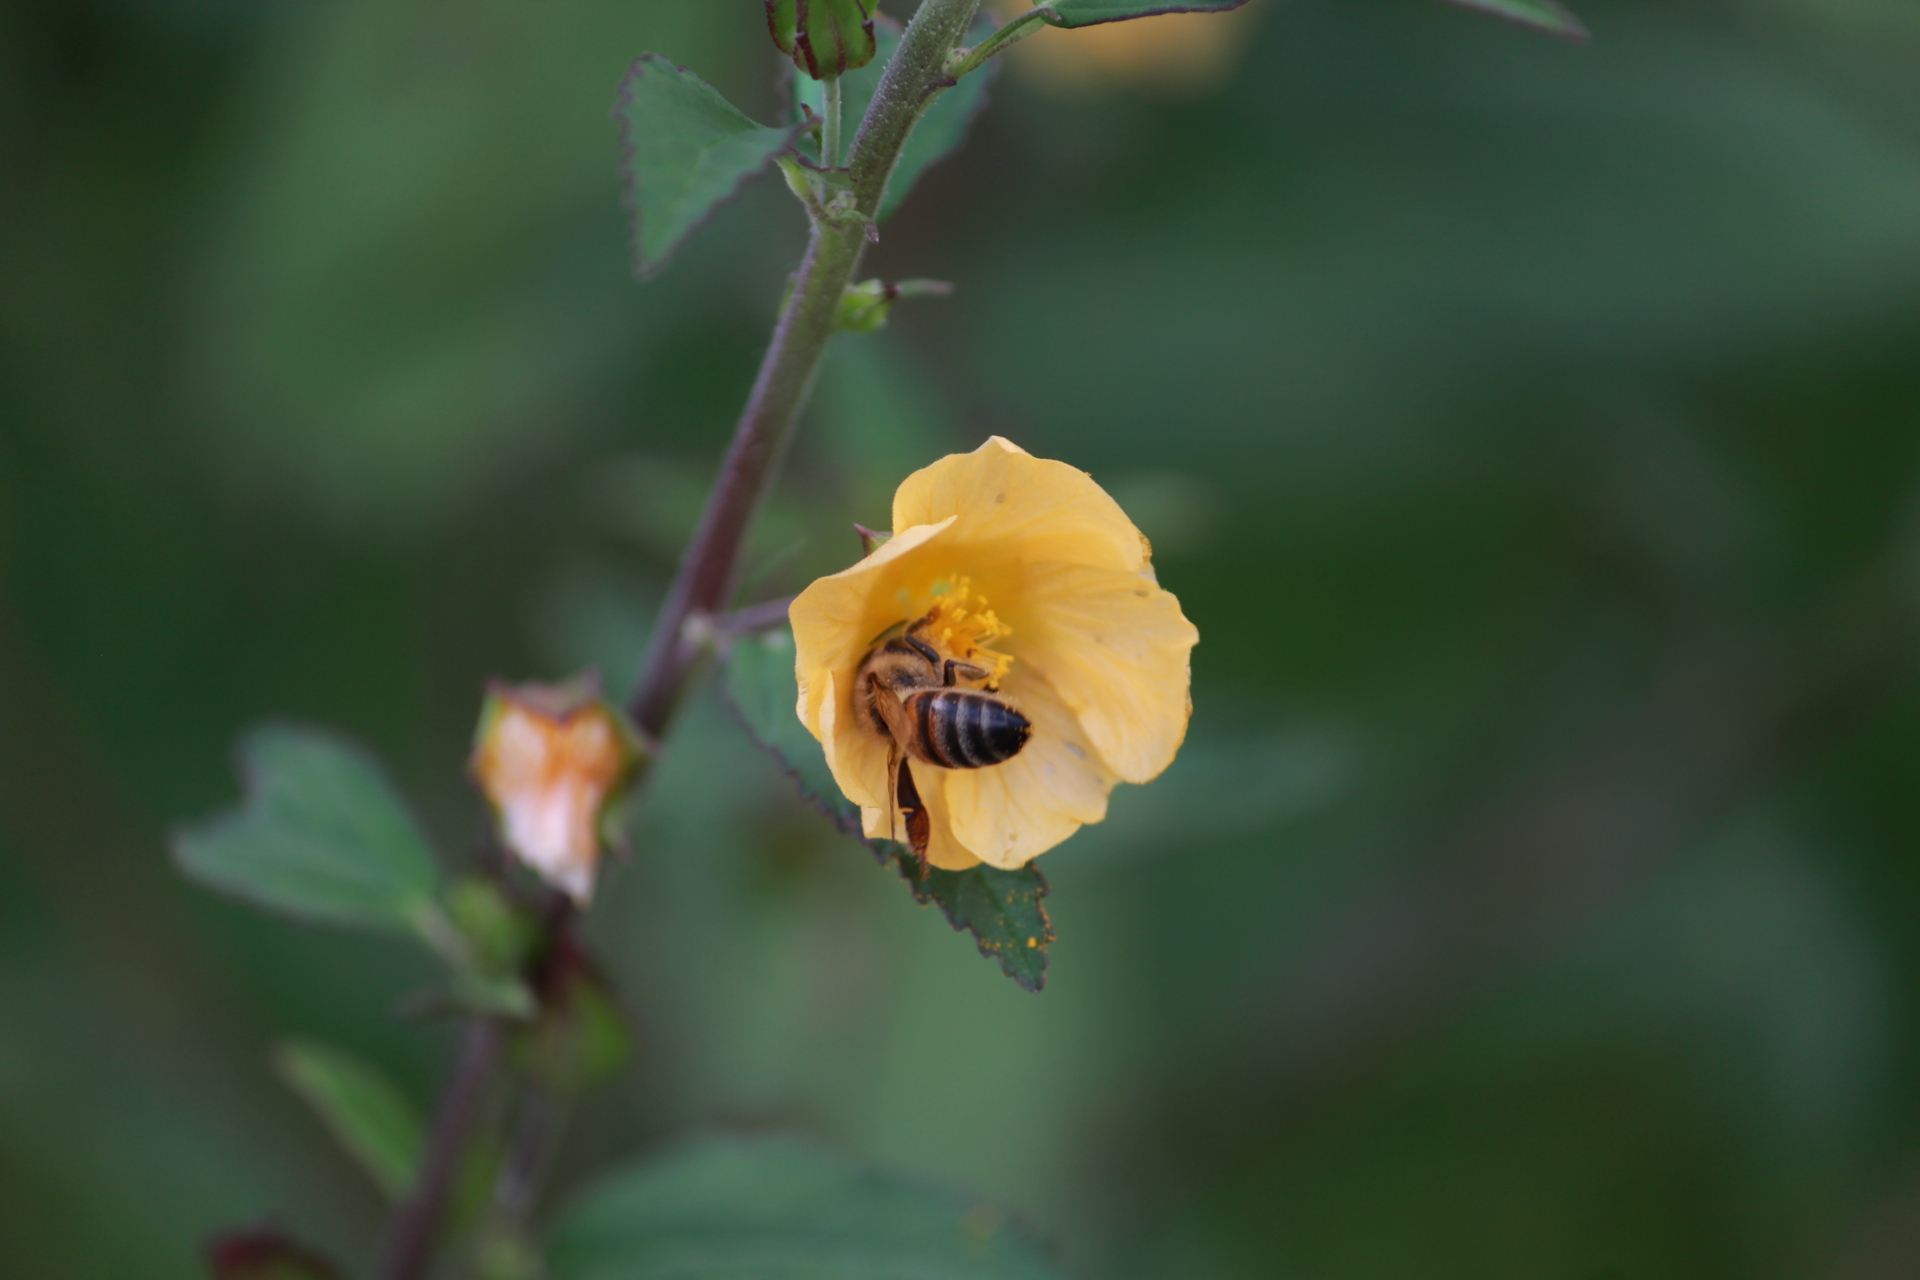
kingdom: Animalia
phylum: Arthropoda
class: Insecta
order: Hymenoptera
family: Apidae
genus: Apis
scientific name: Apis mellifera
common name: Honey bee
